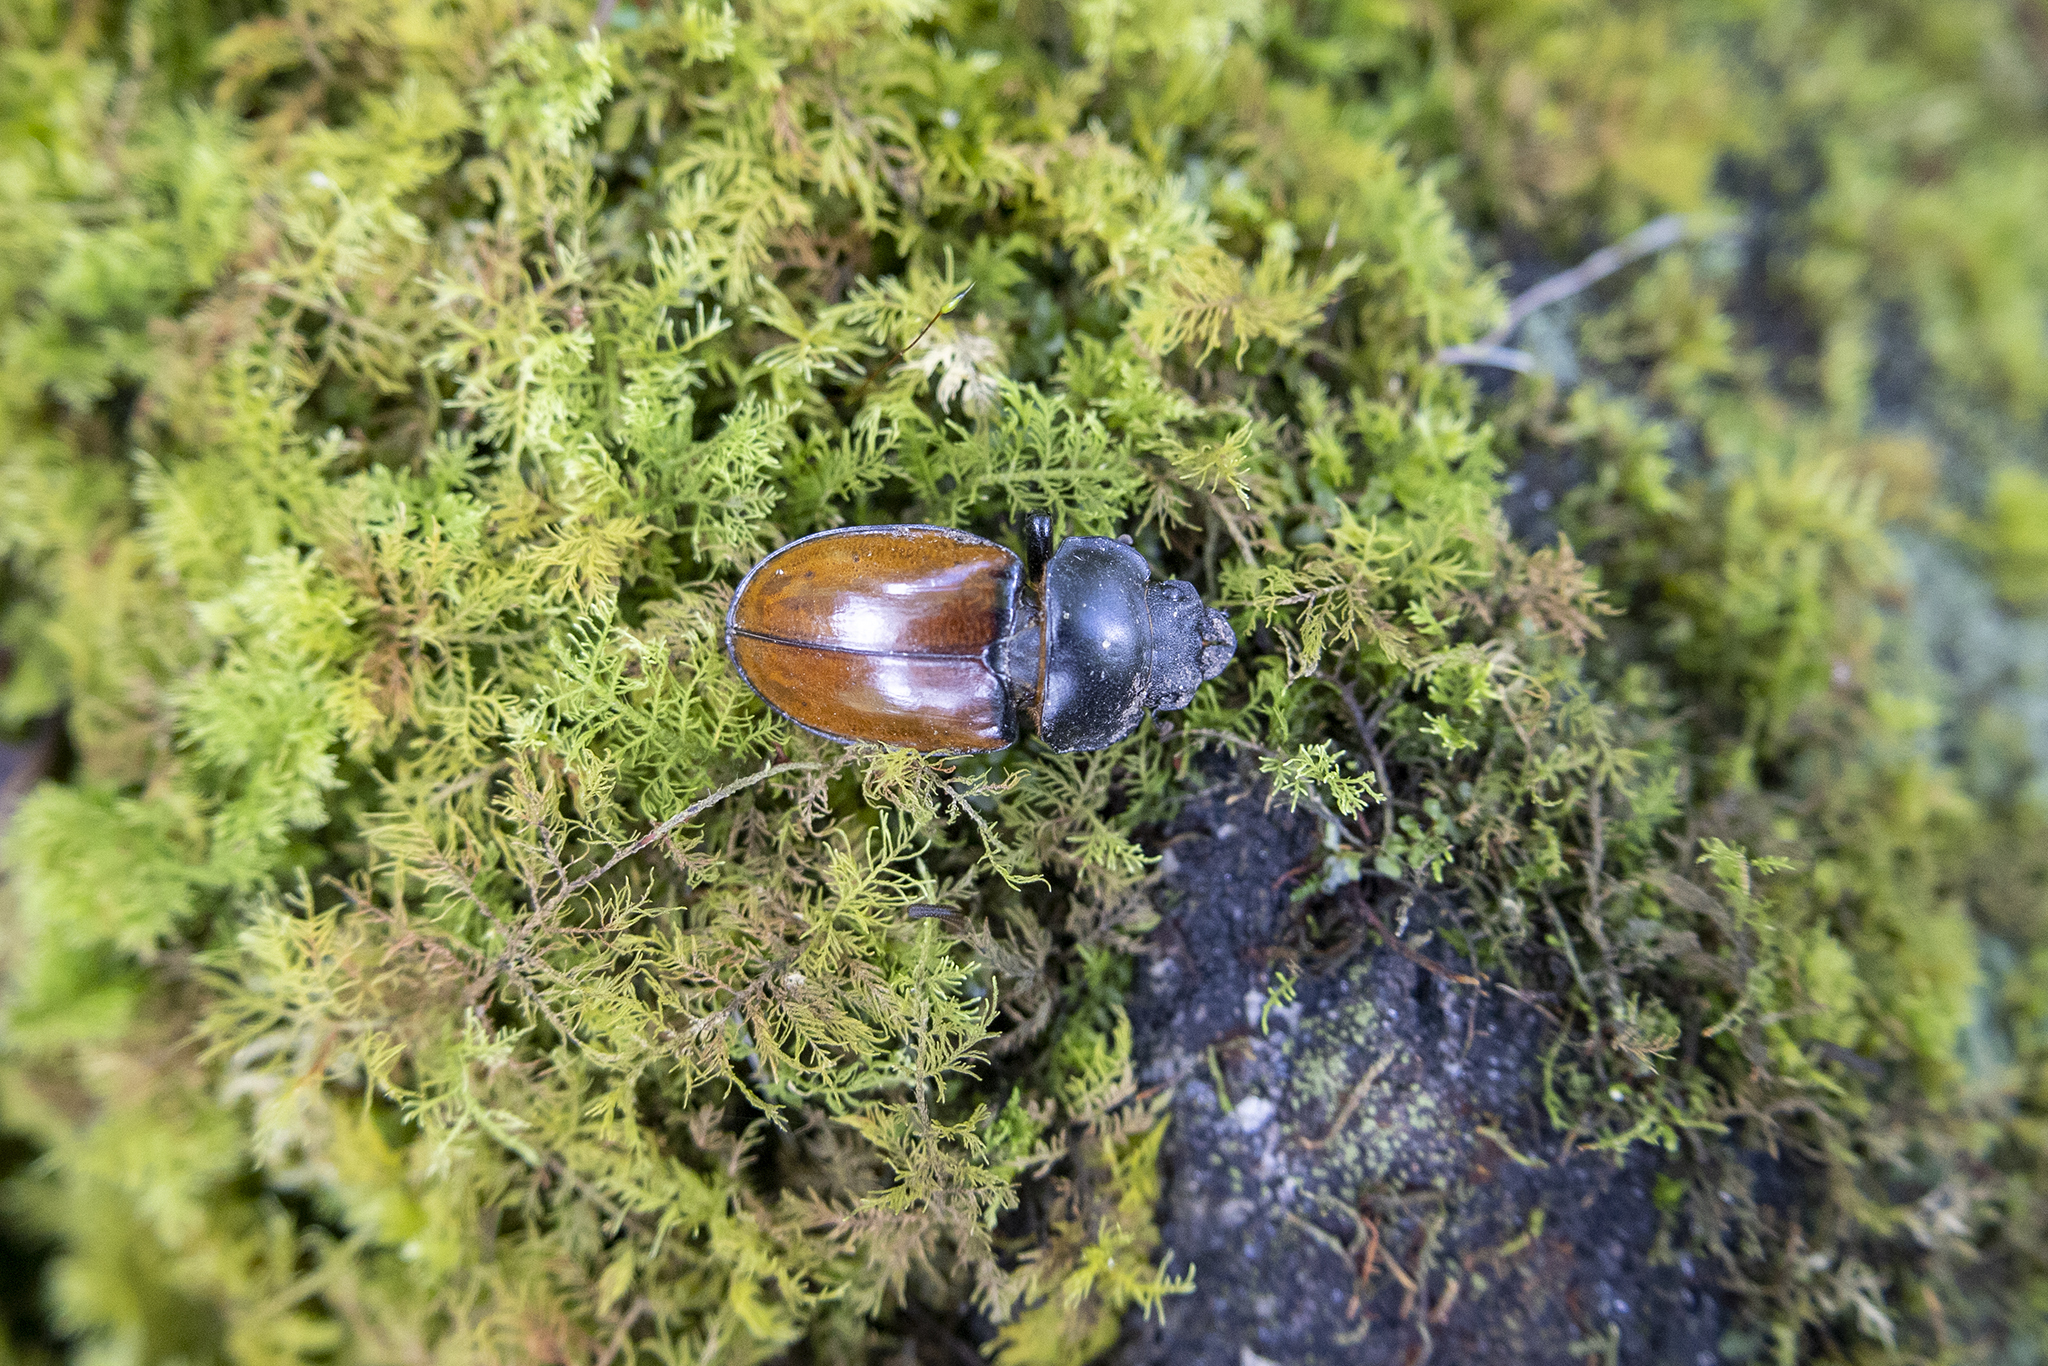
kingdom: Animalia
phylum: Arthropoda
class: Insecta
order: Coleoptera
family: Lucanidae
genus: Neolucanus
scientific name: Neolucanus castanopterus
